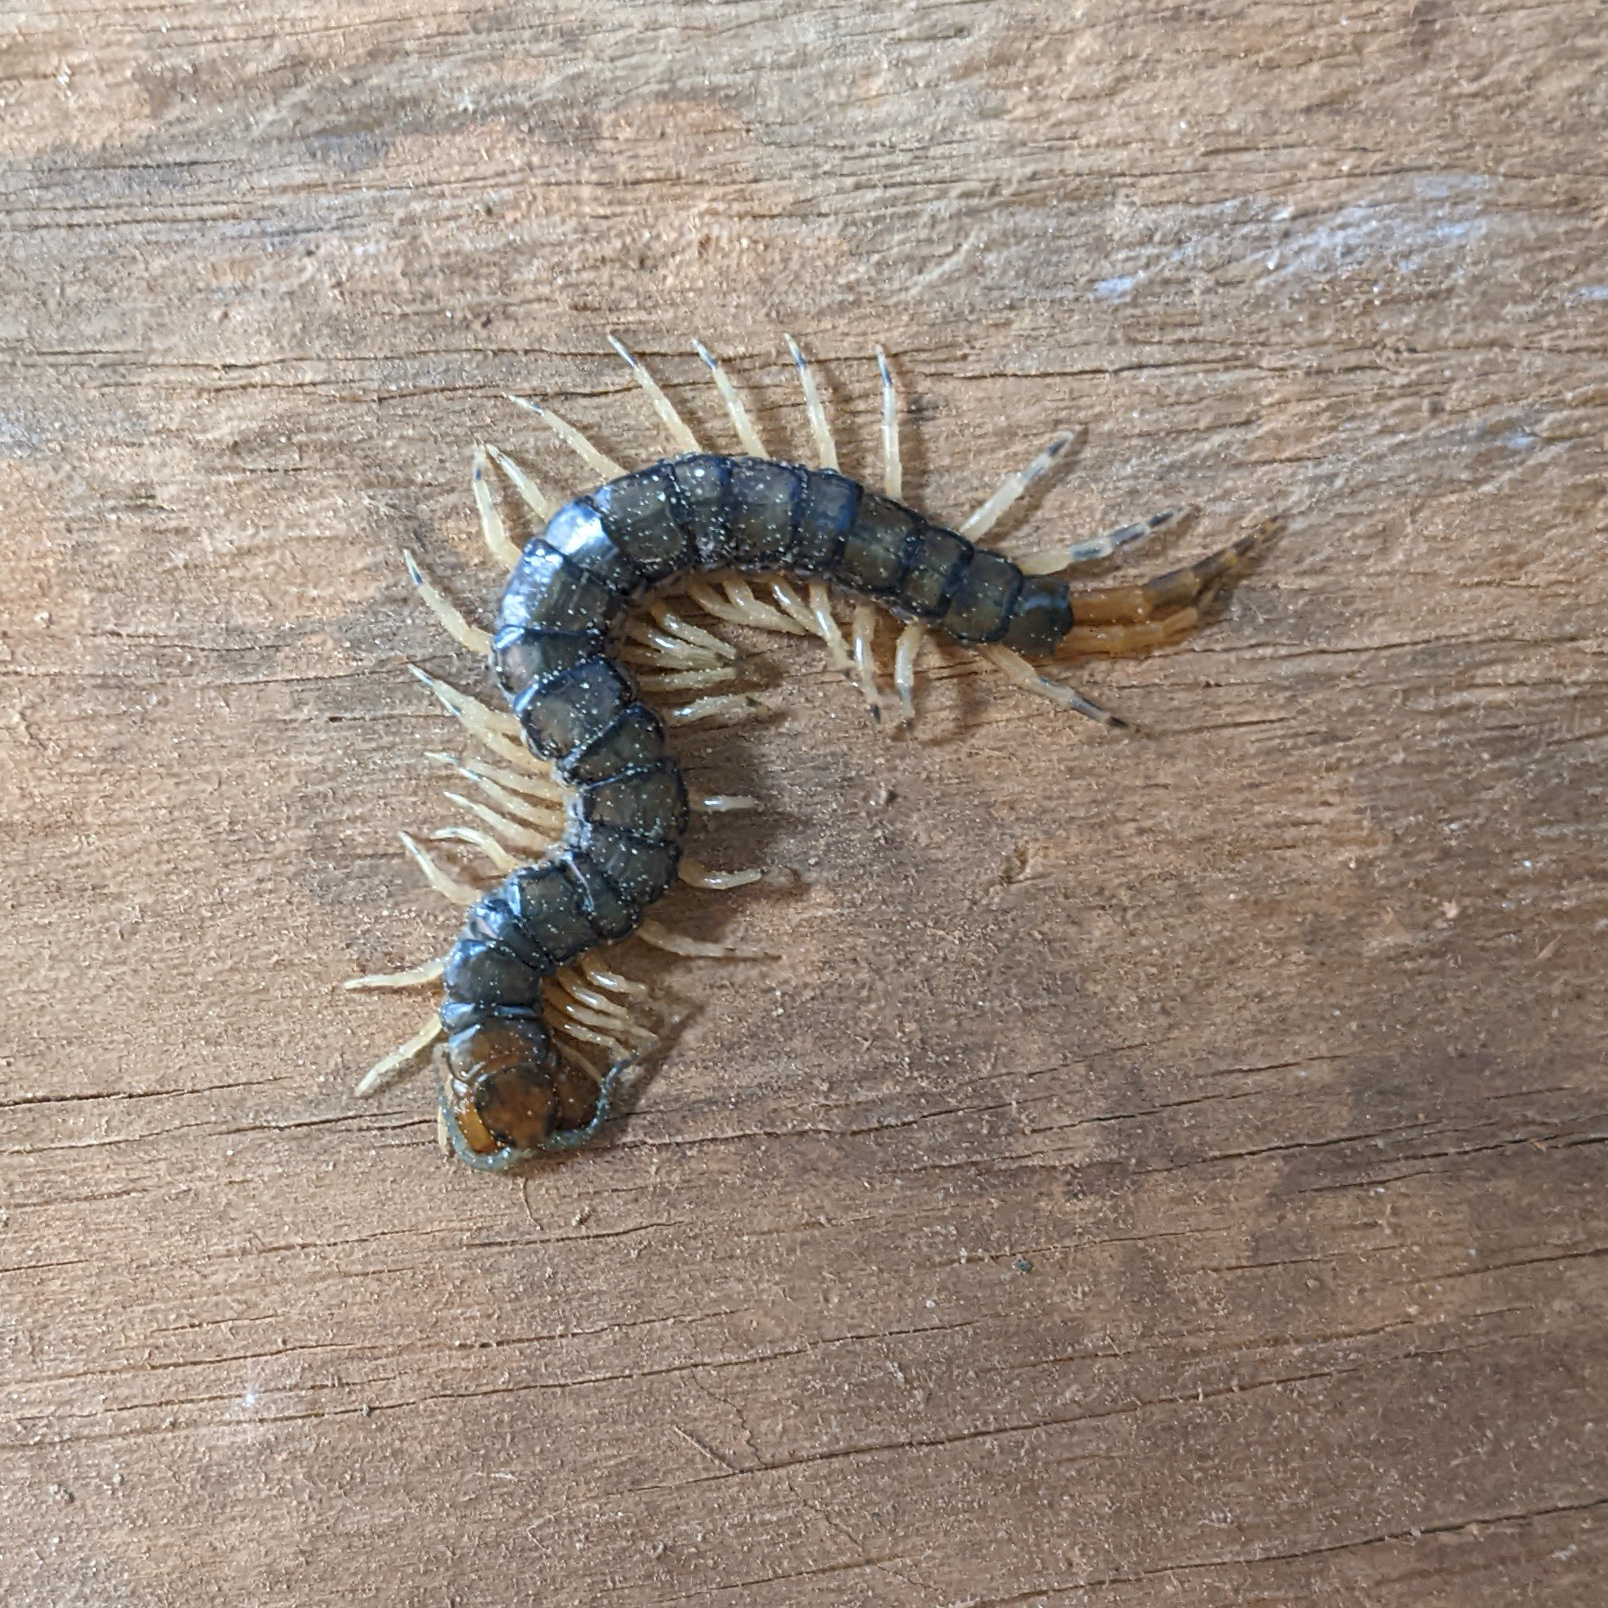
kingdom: Animalia
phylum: Arthropoda
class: Chilopoda
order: Scolopendromorpha
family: Scolopendridae
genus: Hemiscolopendra
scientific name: Hemiscolopendra marginata
